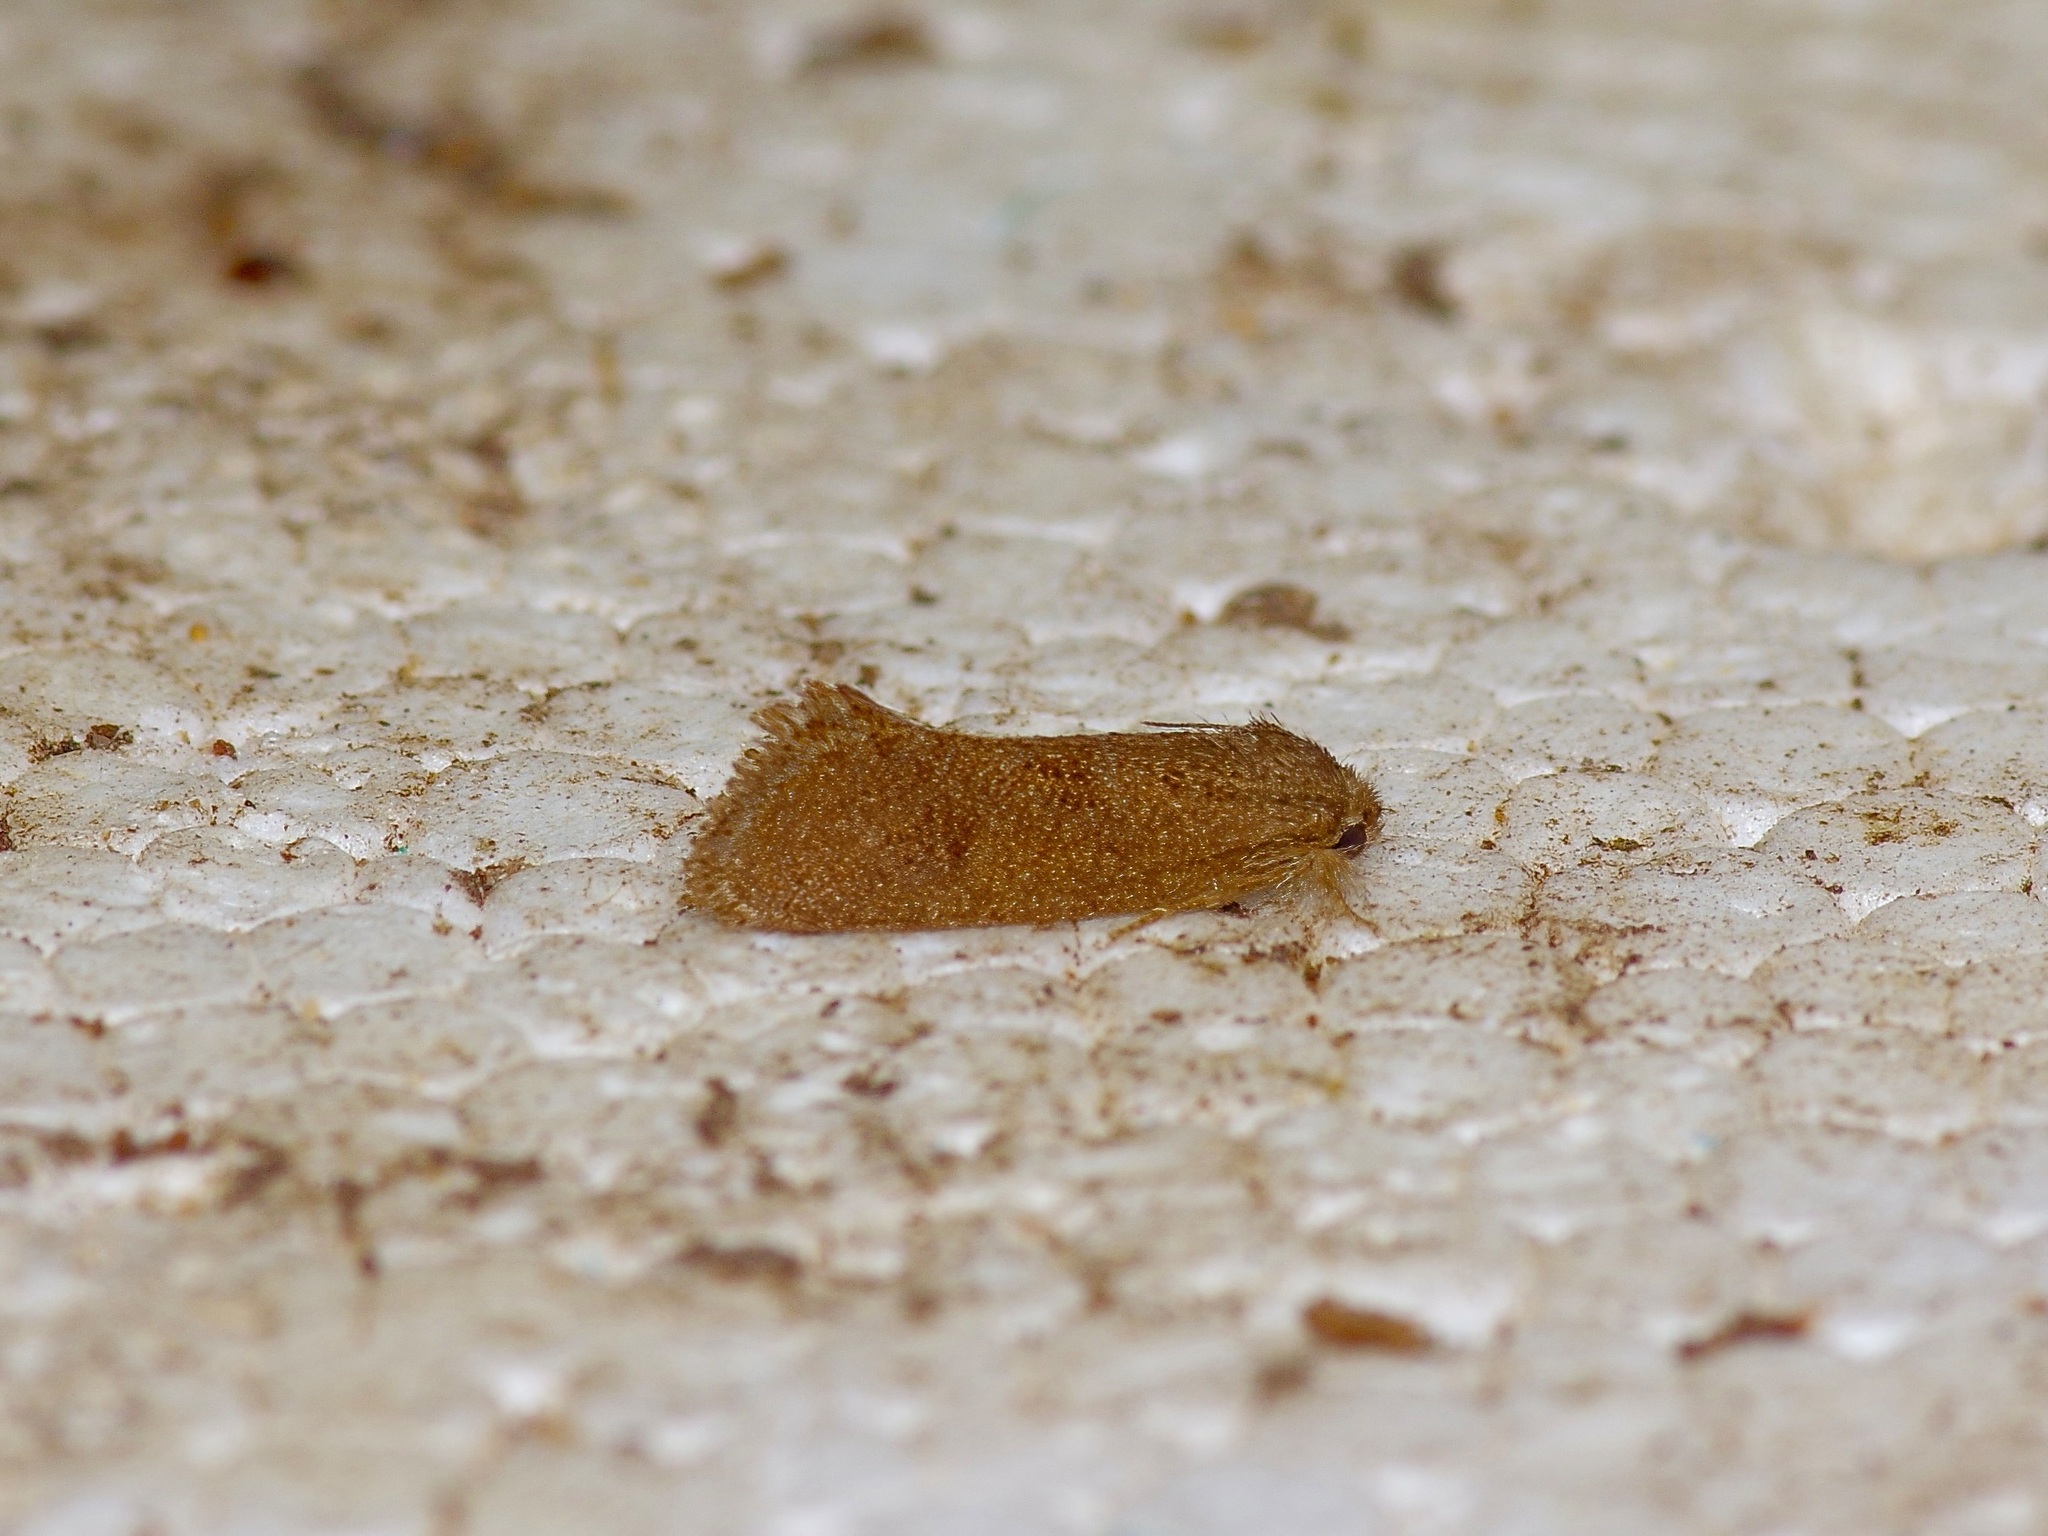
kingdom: Animalia
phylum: Arthropoda
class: Insecta
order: Lepidoptera
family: Tineidae
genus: Acrolophus
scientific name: Acrolophus heppneri
